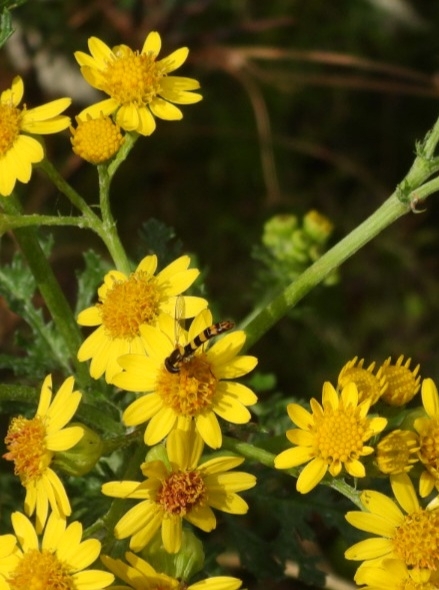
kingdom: Animalia
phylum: Arthropoda
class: Insecta
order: Diptera
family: Syrphidae
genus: Sphaerophoria
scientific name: Sphaerophoria scripta
